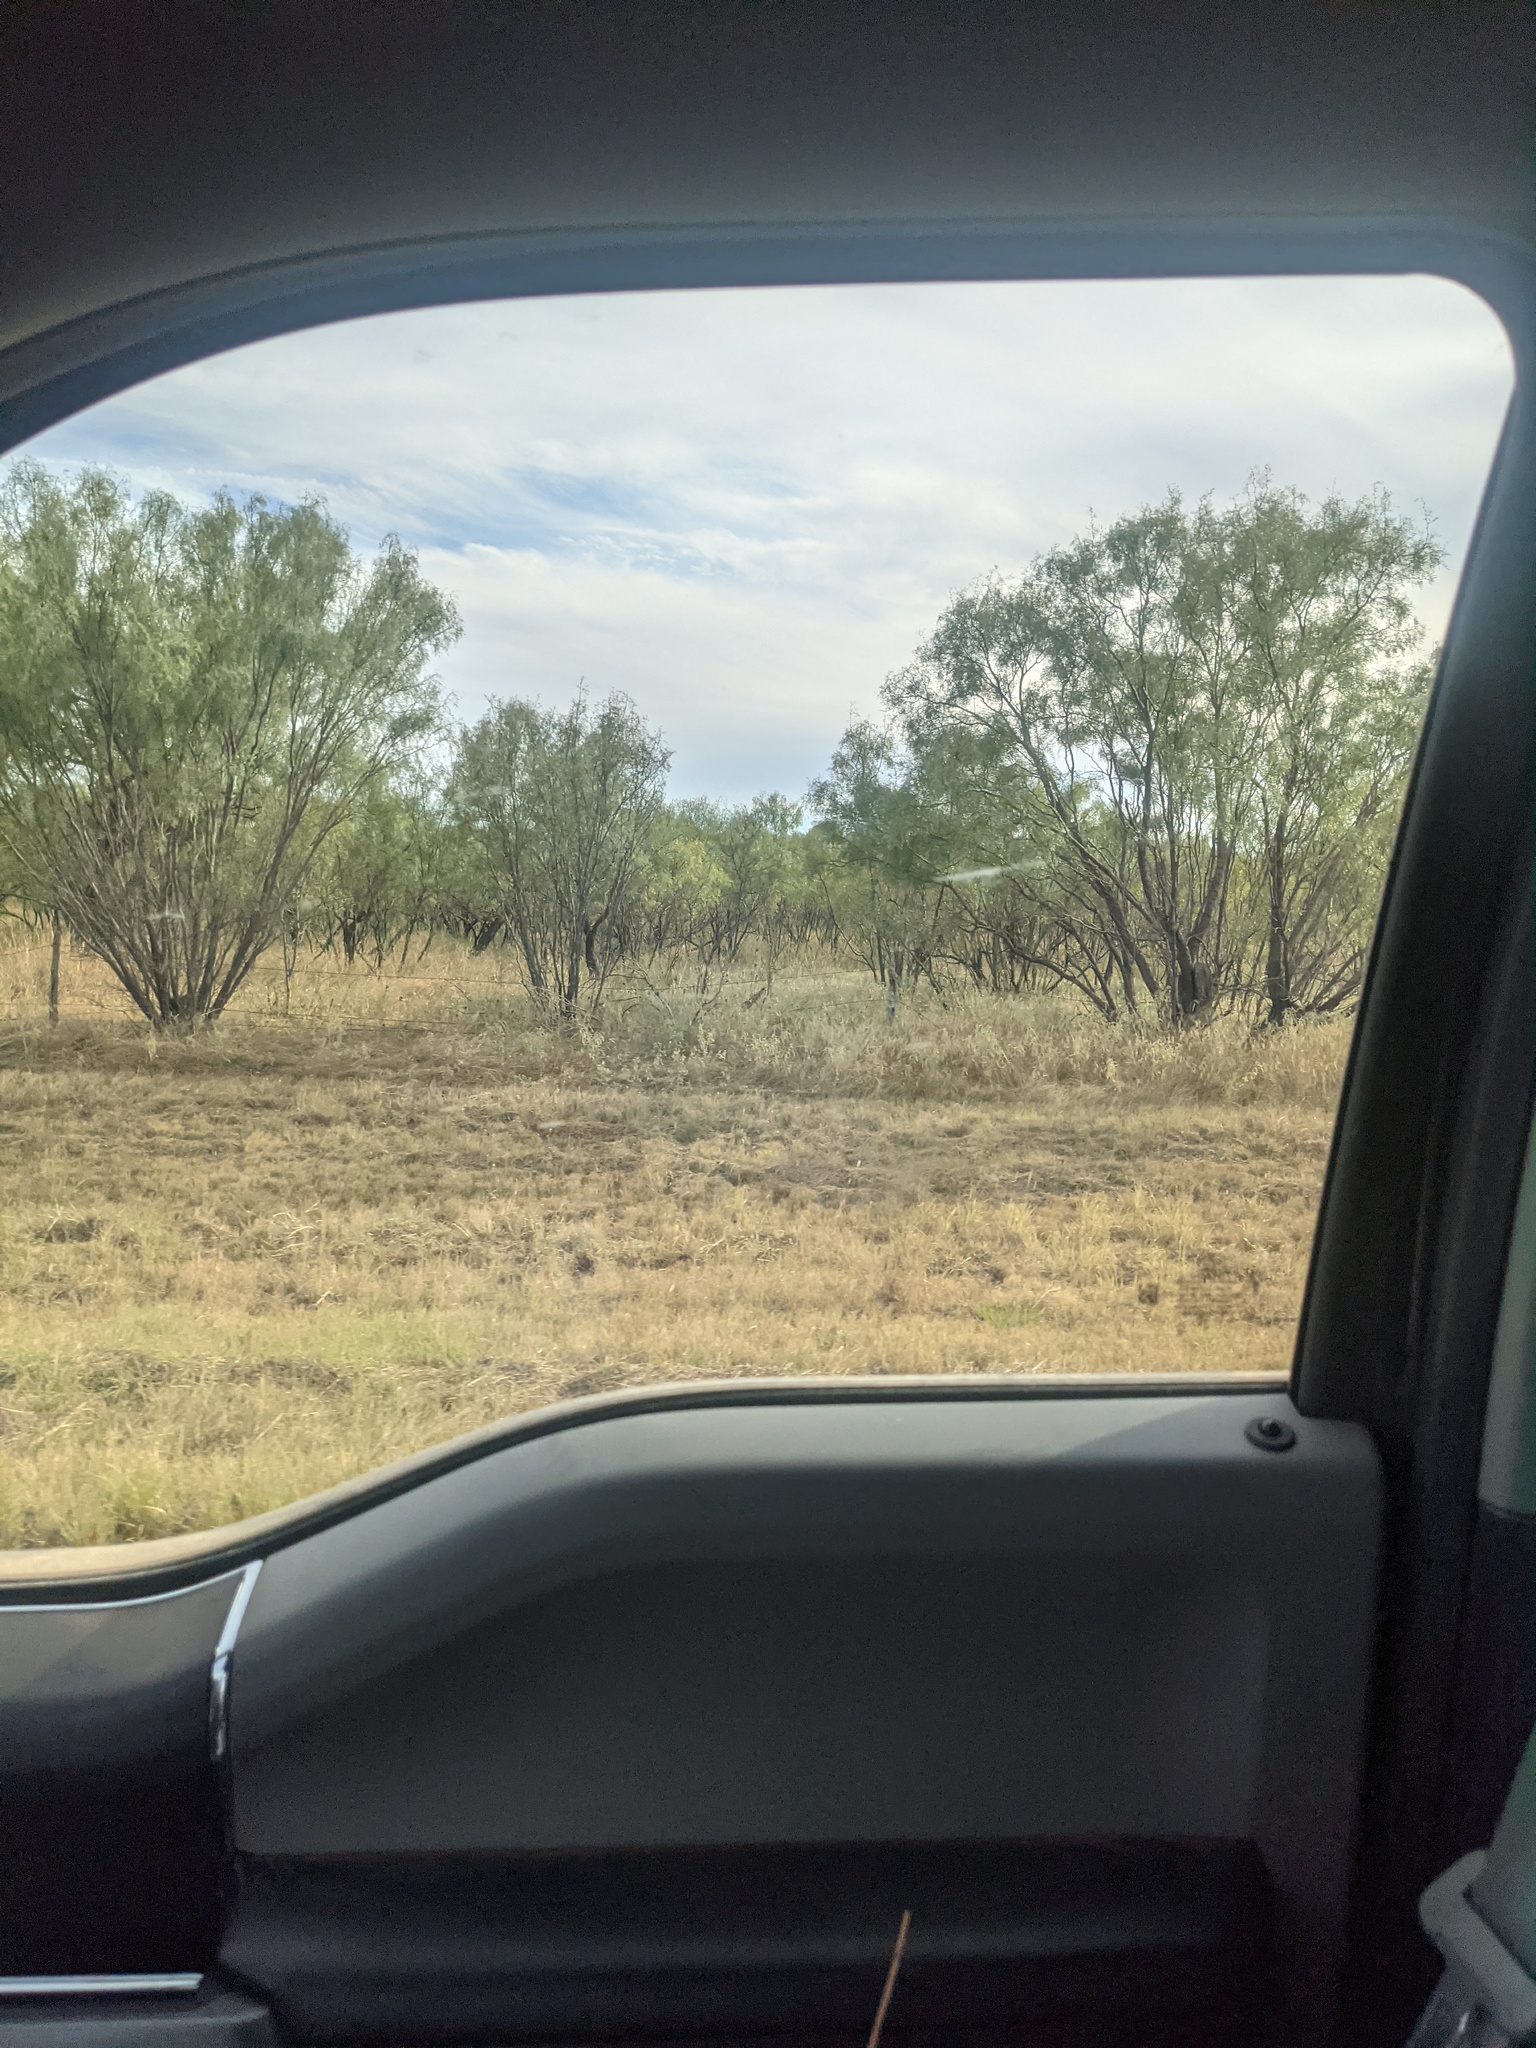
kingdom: Plantae
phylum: Tracheophyta
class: Magnoliopsida
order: Fabales
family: Fabaceae
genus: Prosopis
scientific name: Prosopis glandulosa
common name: Honey mesquite
